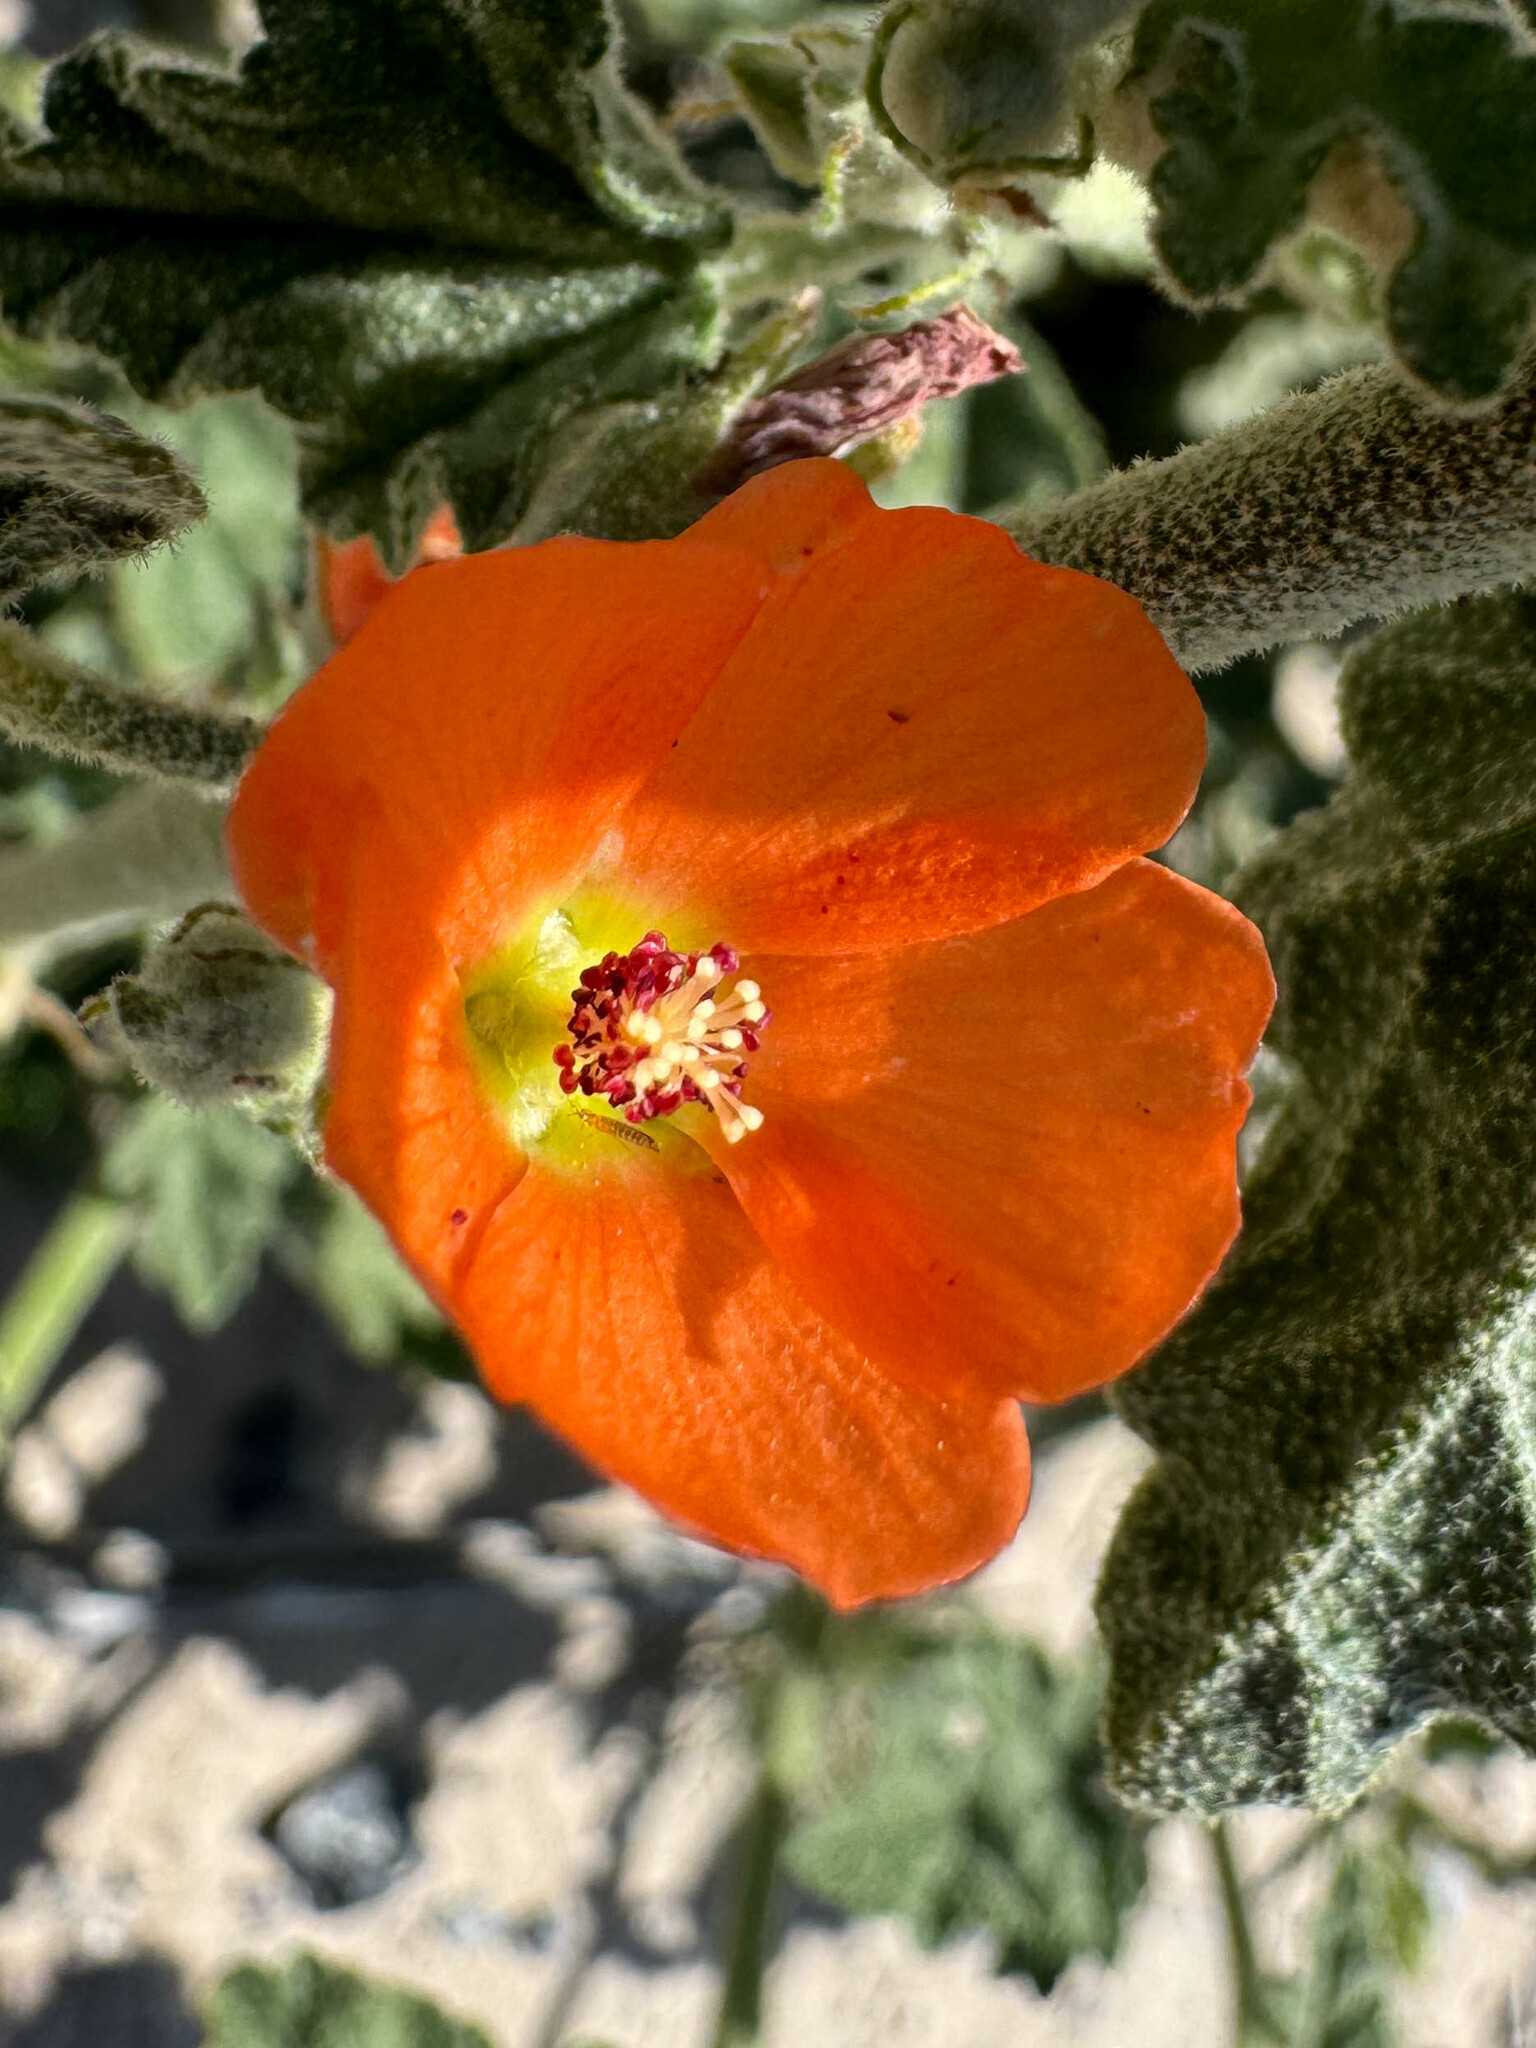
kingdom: Plantae
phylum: Tracheophyta
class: Magnoliopsida
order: Malvales
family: Malvaceae
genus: Sphaeralcea
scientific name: Sphaeralcea ambigua
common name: Apricot globe-mallow
